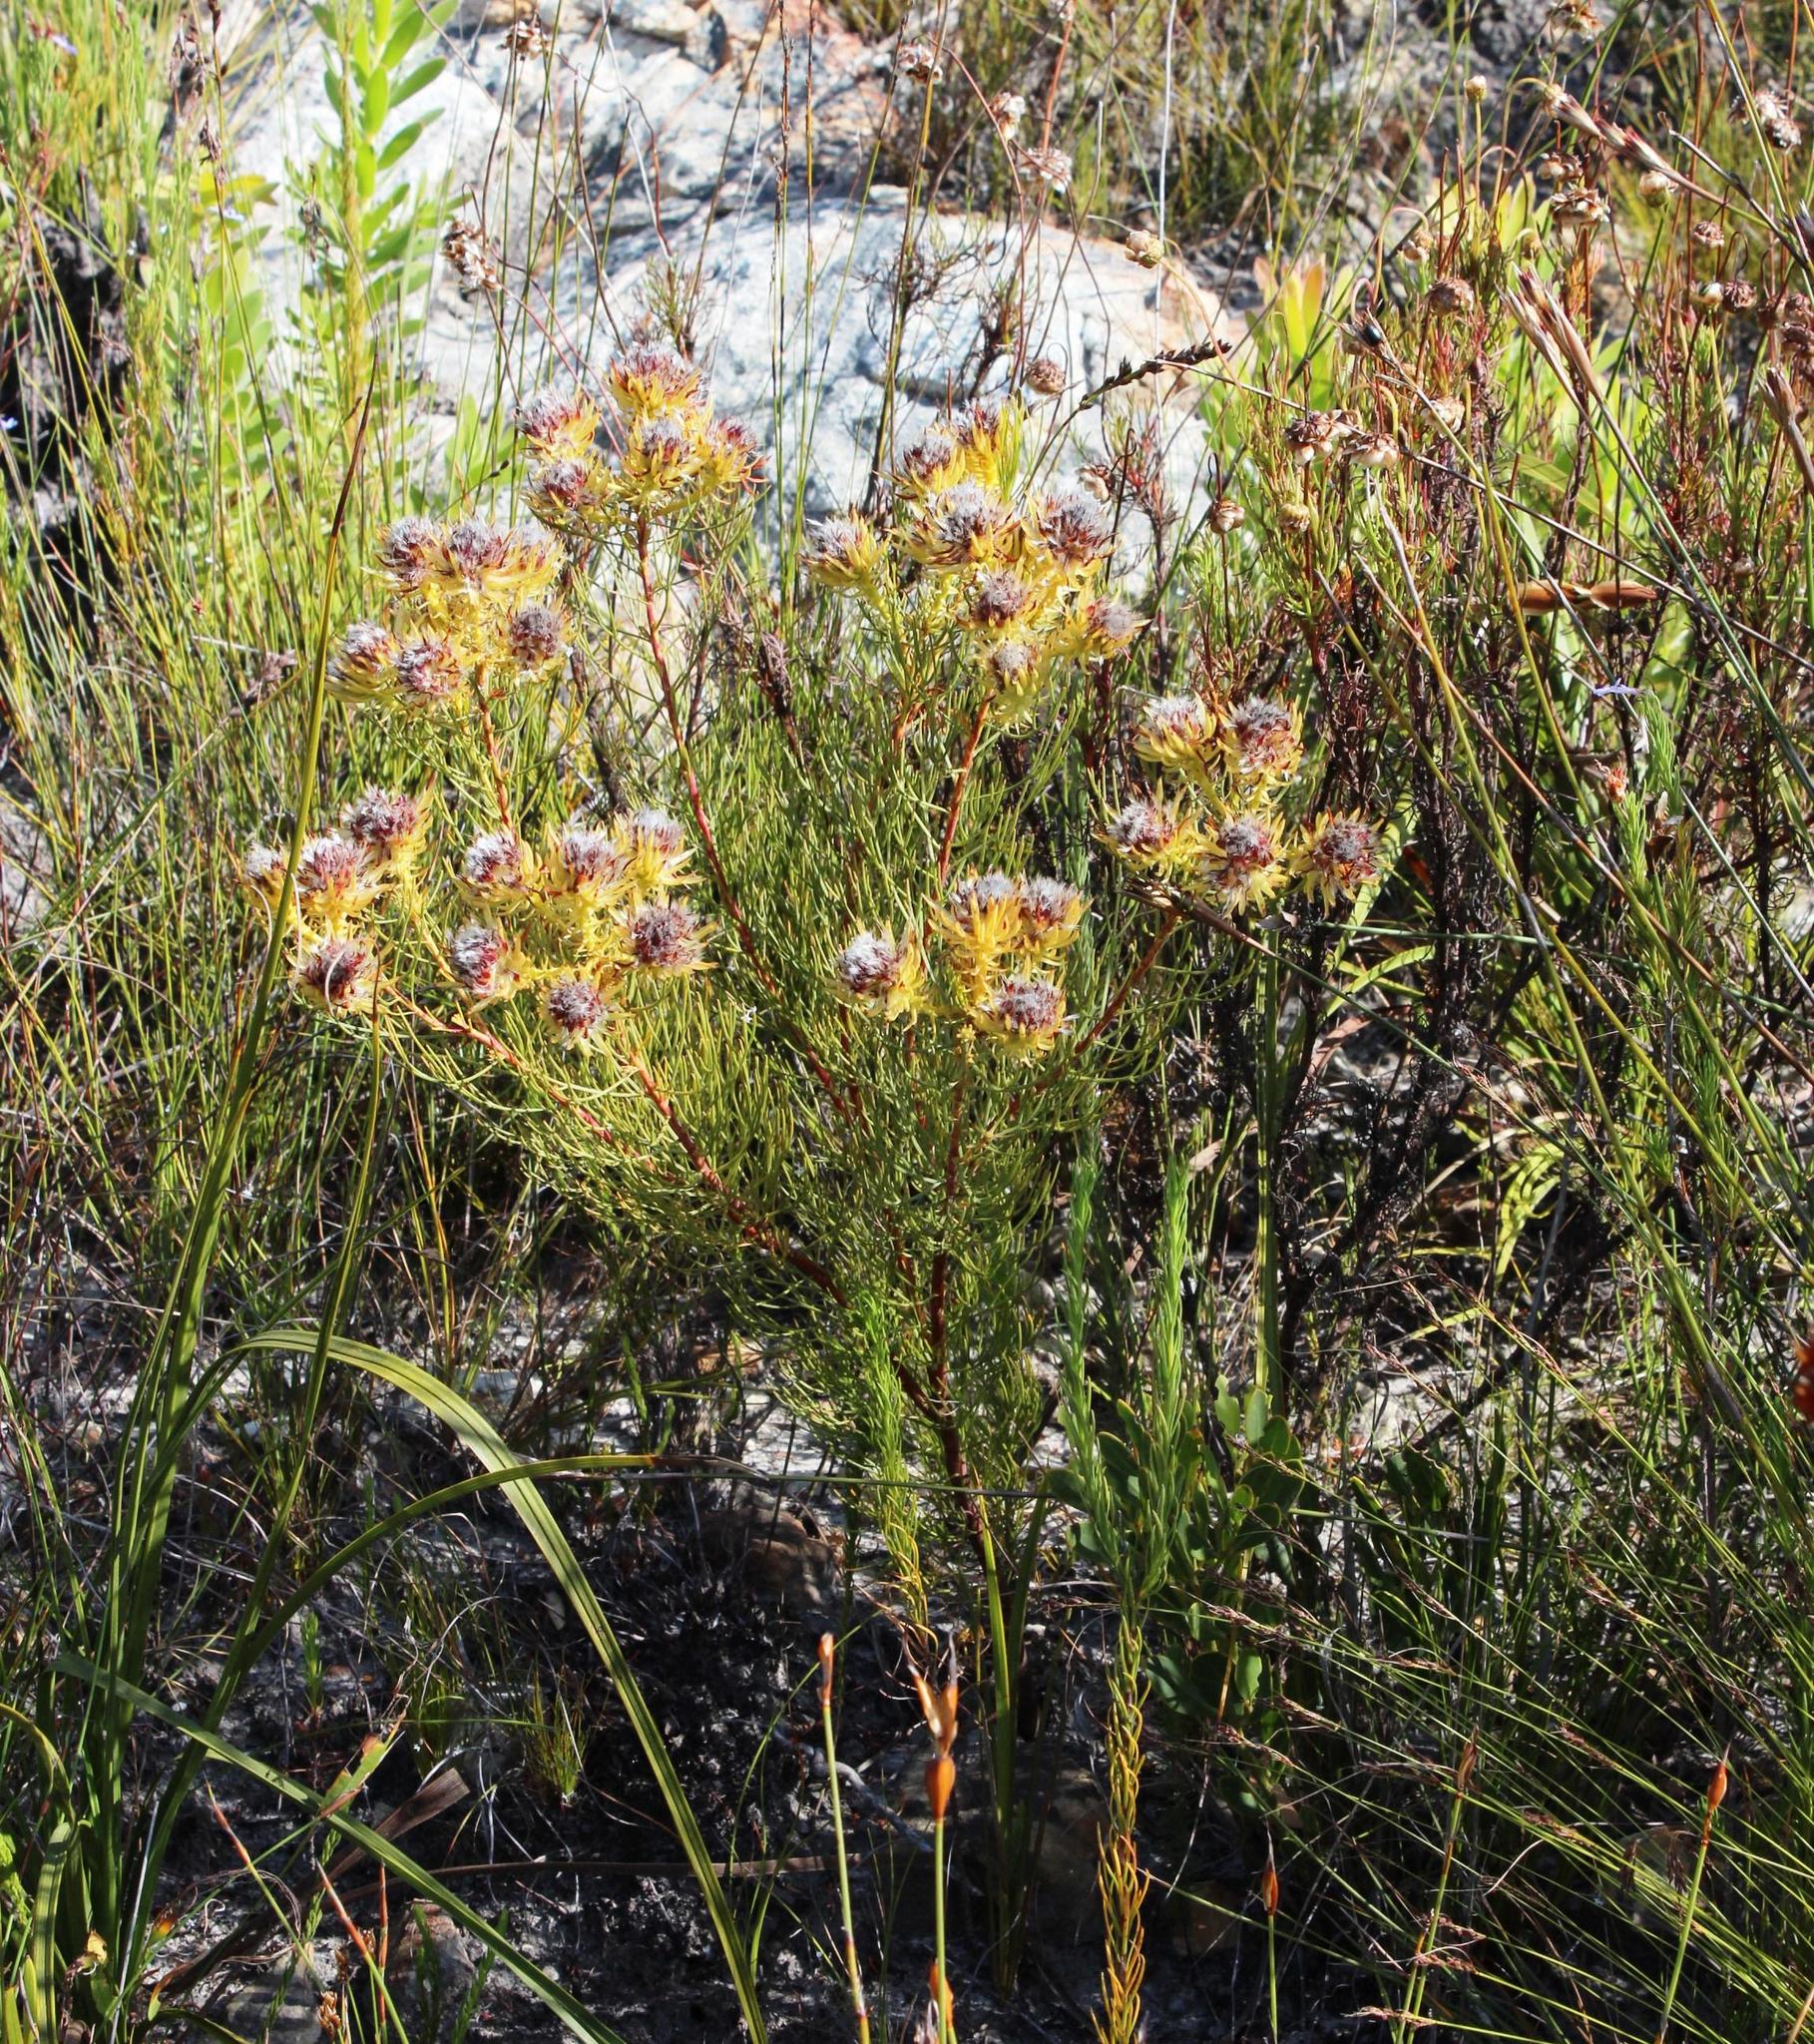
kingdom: Plantae
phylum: Tracheophyta
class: Magnoliopsida
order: Proteales
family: Proteaceae
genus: Serruria
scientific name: Serruria phylicoides
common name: Bearded spiderhead
